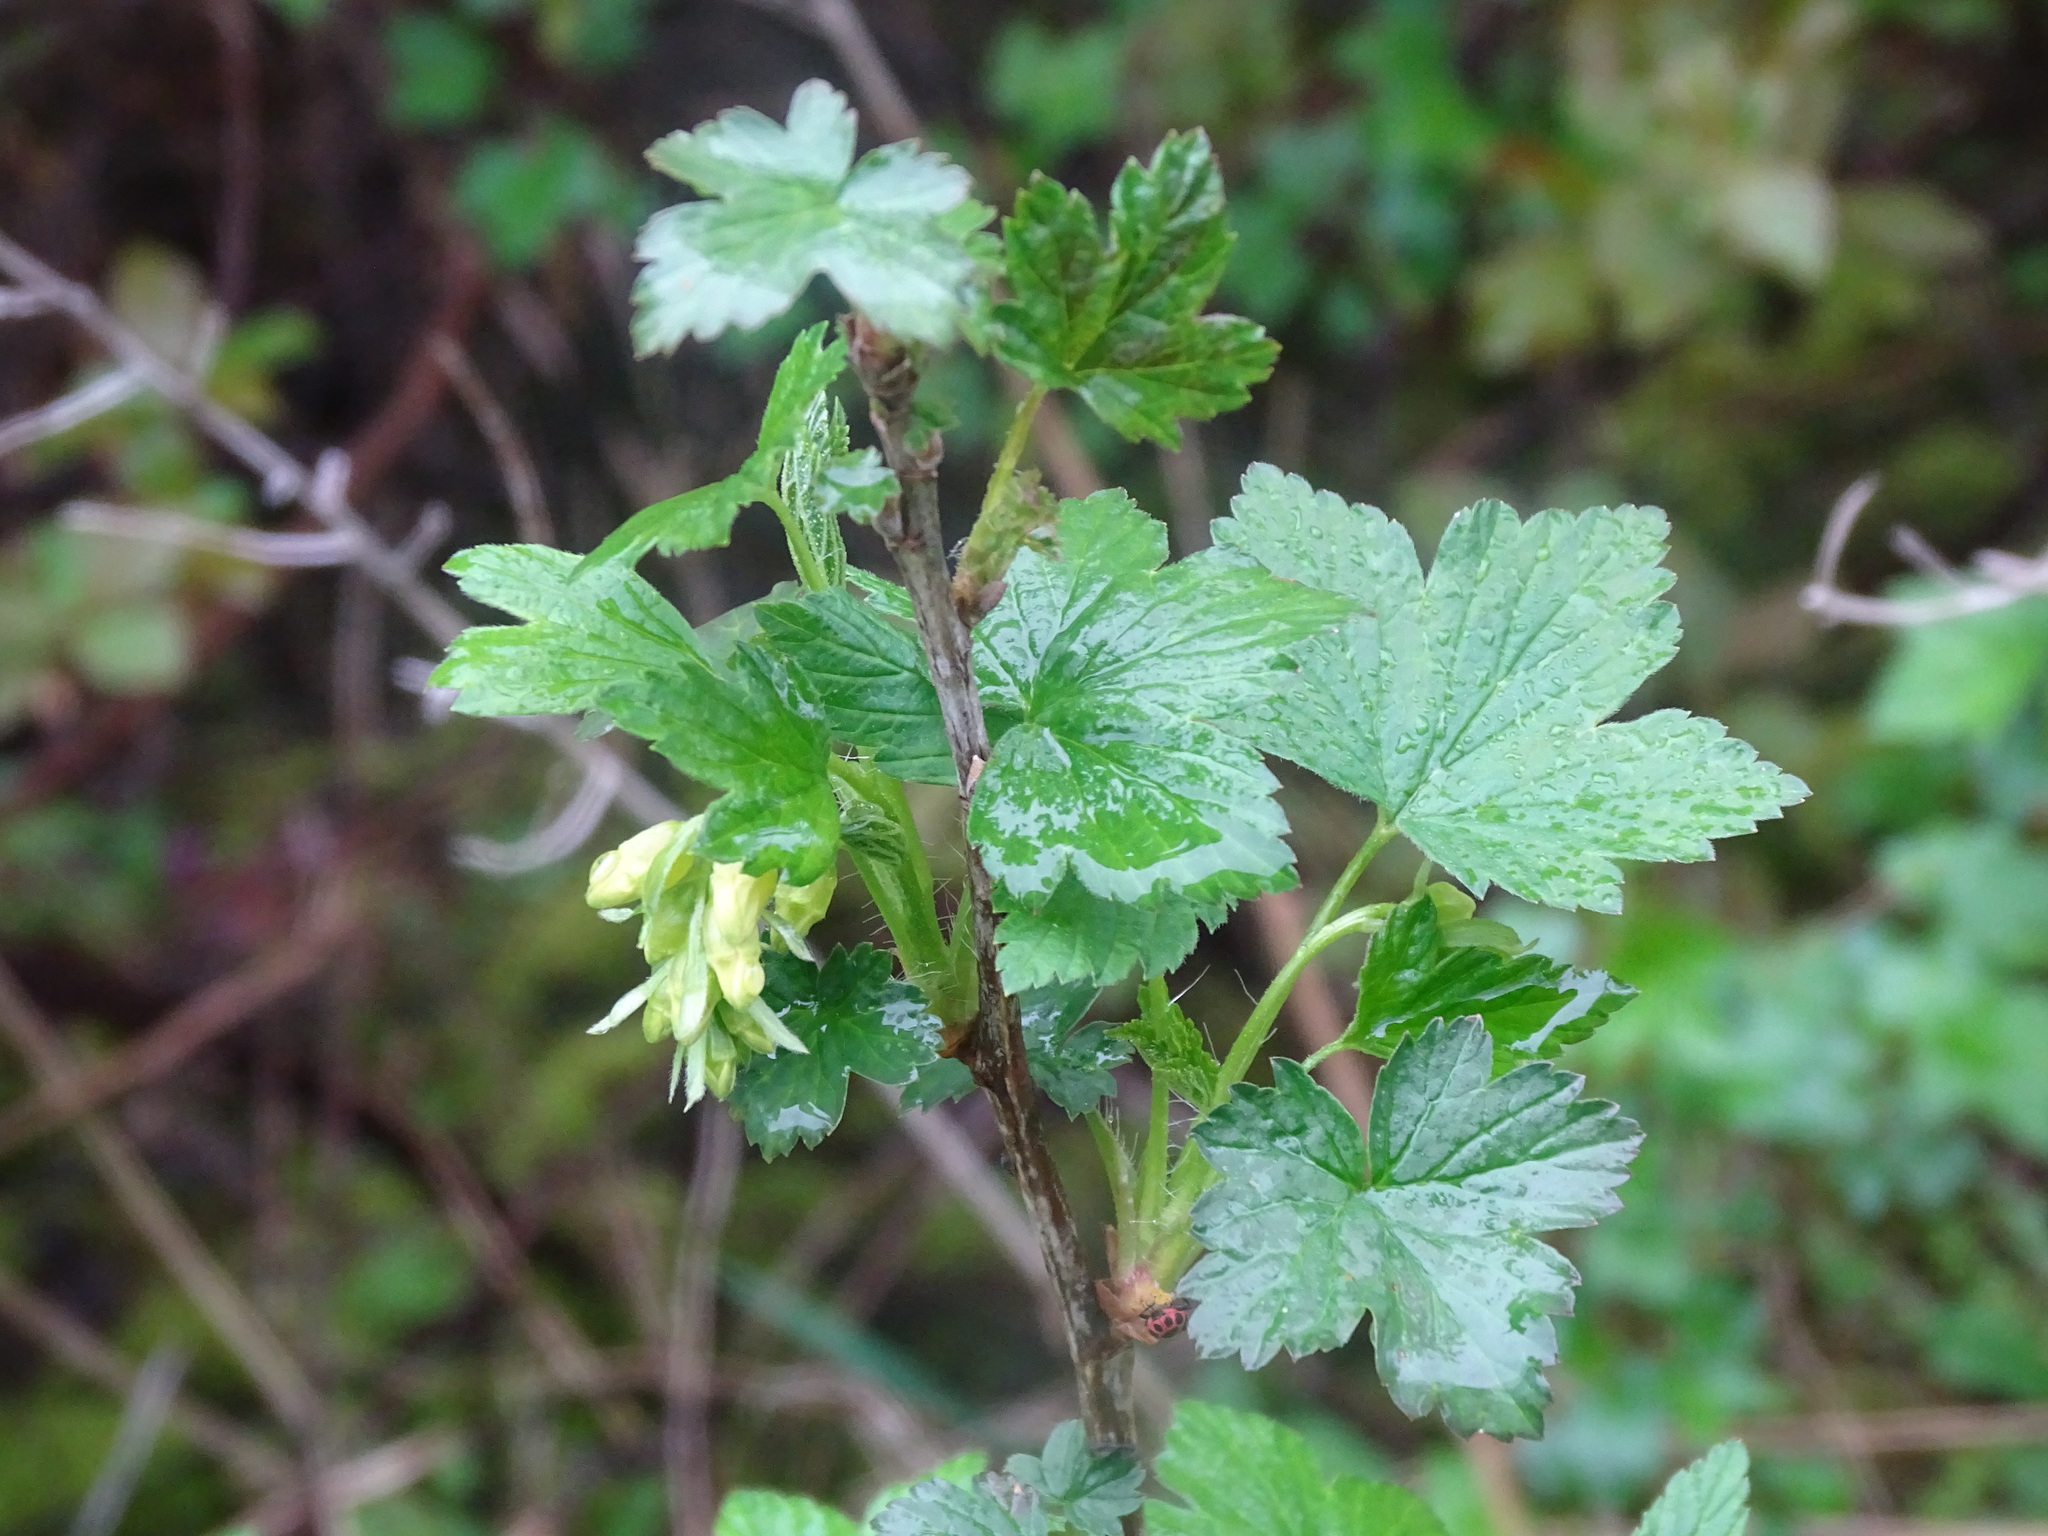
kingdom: Plantae
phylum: Tracheophyta
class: Magnoliopsida
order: Saxifragales
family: Grossulariaceae
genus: Ribes
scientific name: Ribes americanum
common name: American black currant
